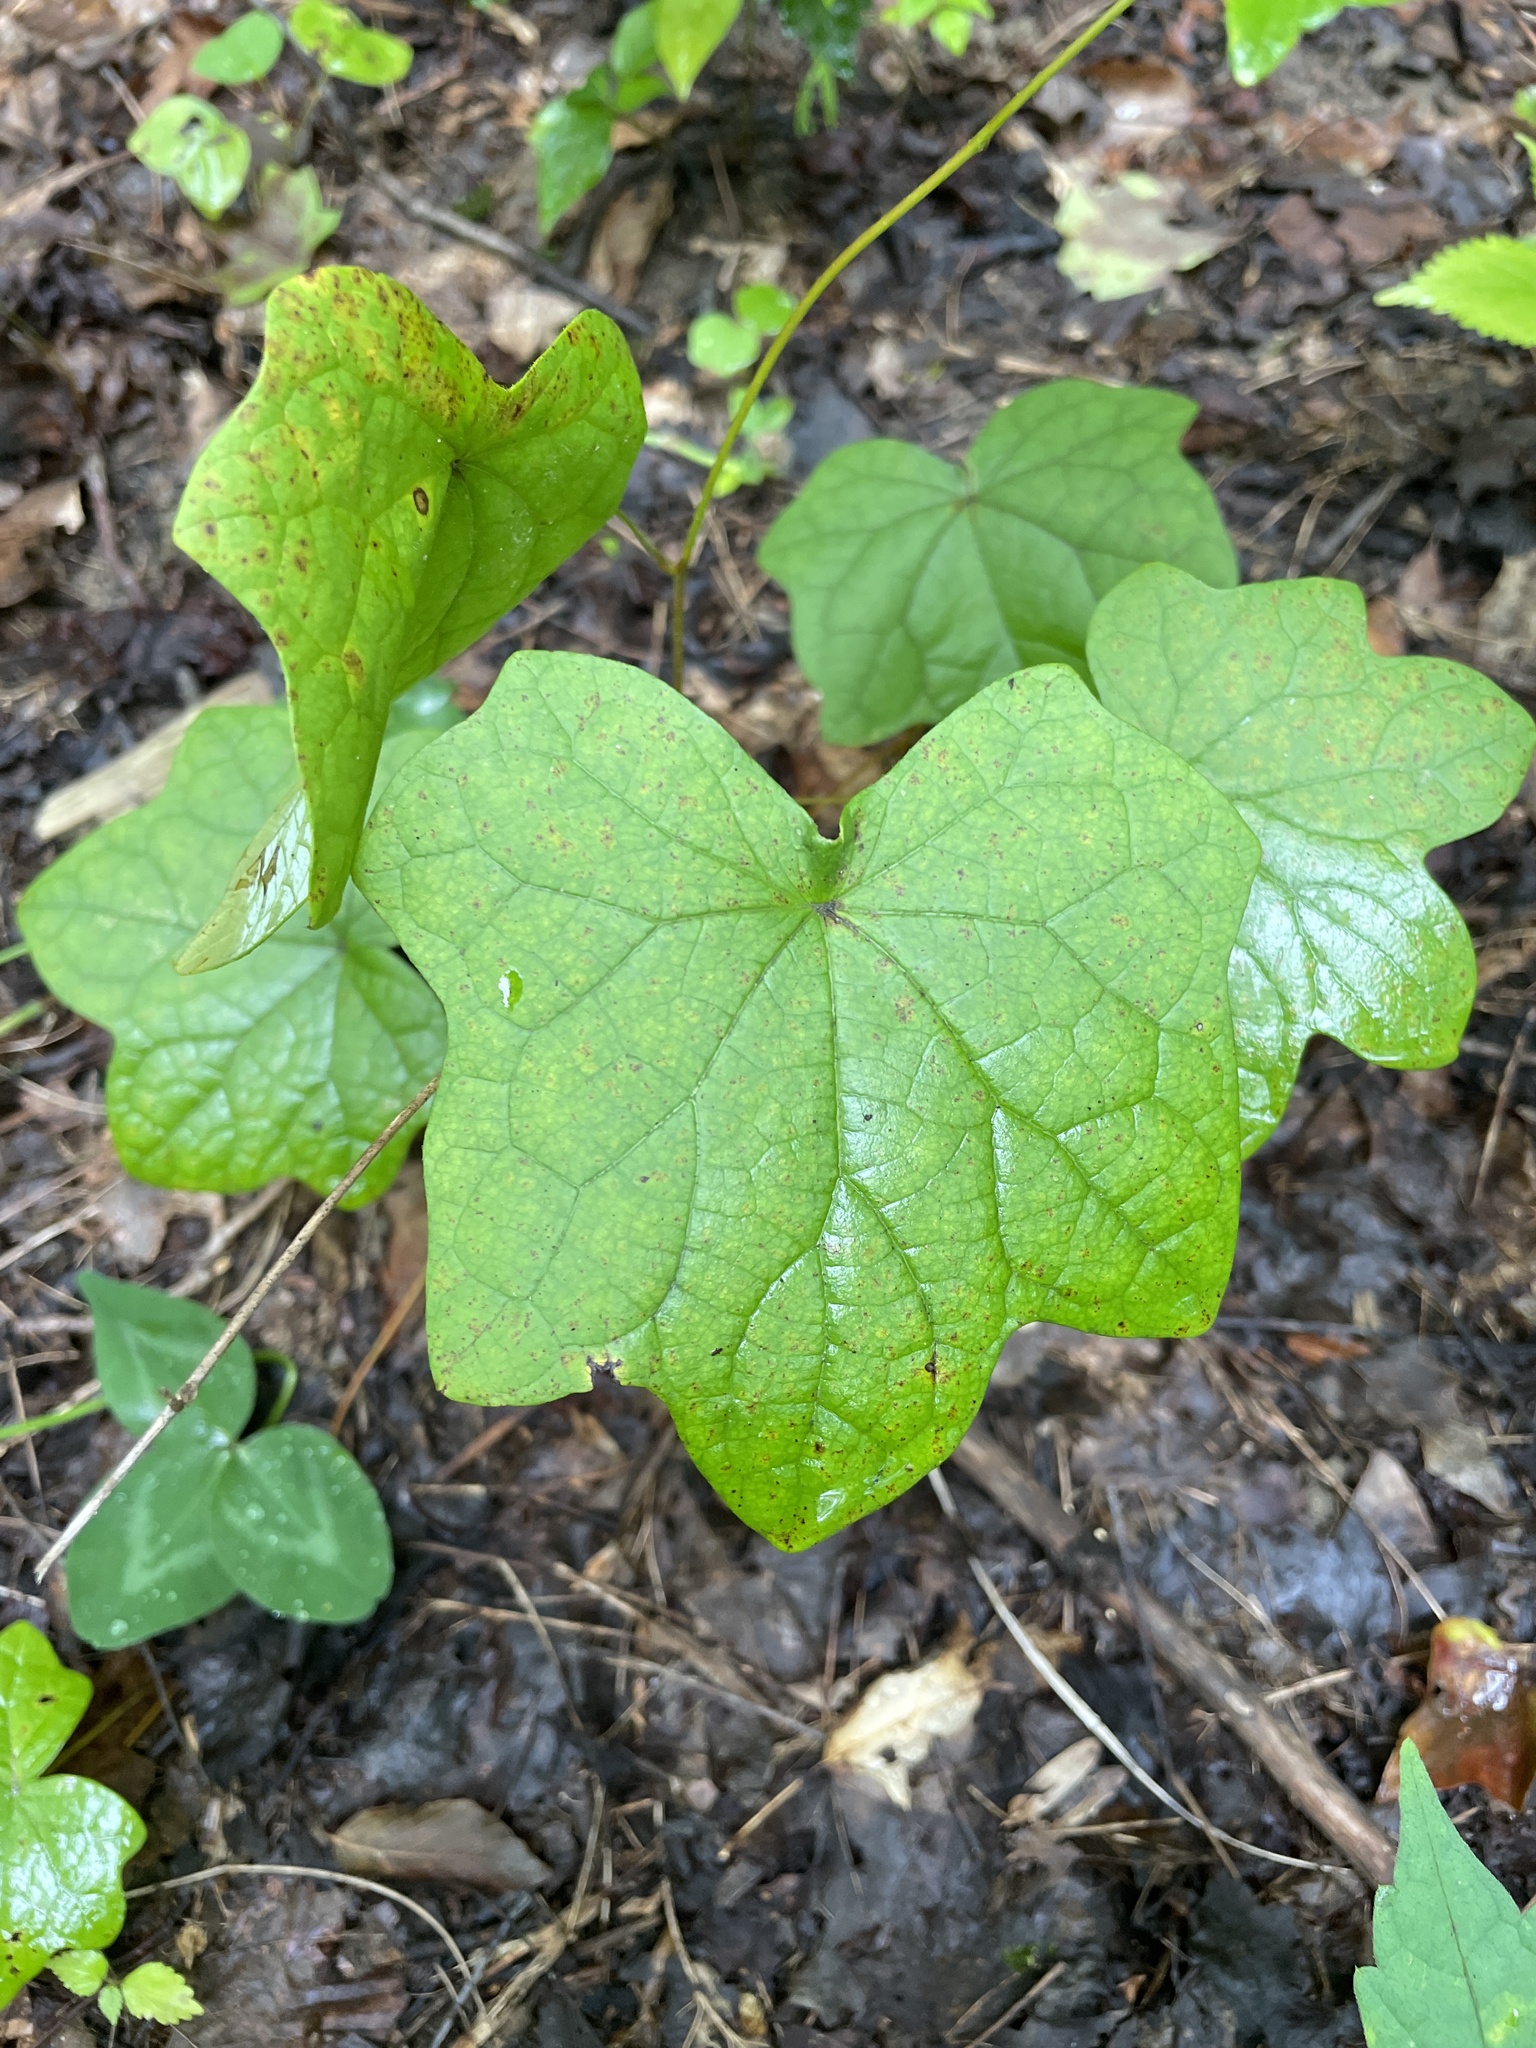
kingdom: Plantae
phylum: Tracheophyta
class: Magnoliopsida
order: Ranunculales
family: Menispermaceae
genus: Menispermum
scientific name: Menispermum canadense
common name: Moonseed
